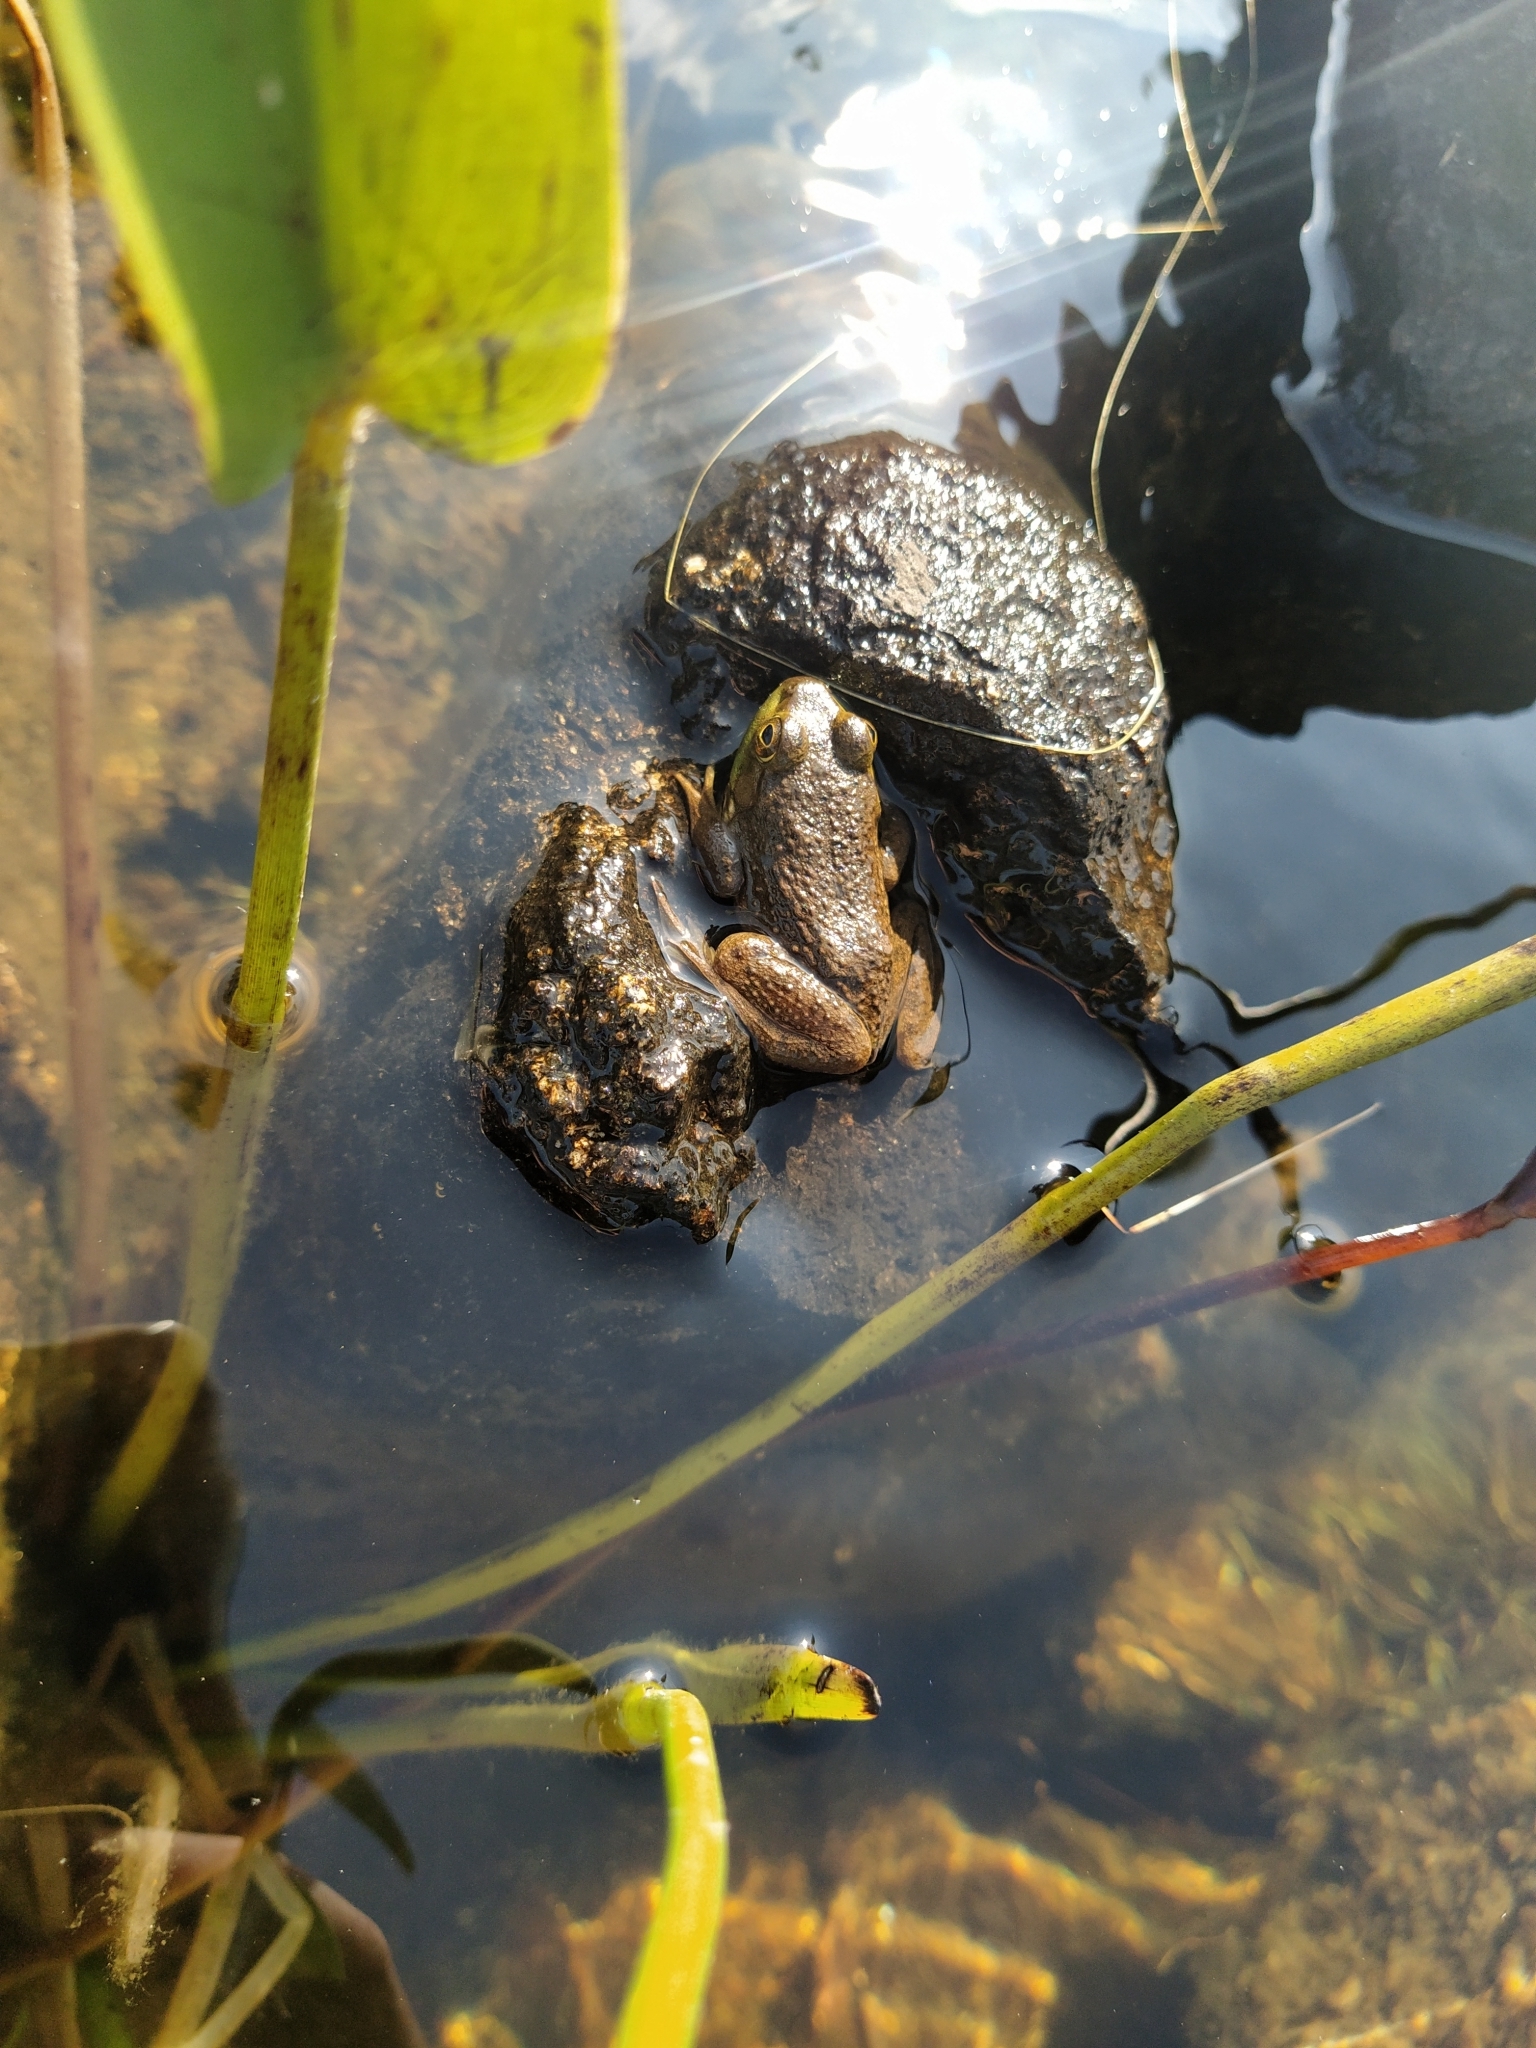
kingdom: Animalia
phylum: Chordata
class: Amphibia
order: Anura
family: Ranidae
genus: Lithobates
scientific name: Lithobates catesbeianus
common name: American bullfrog
